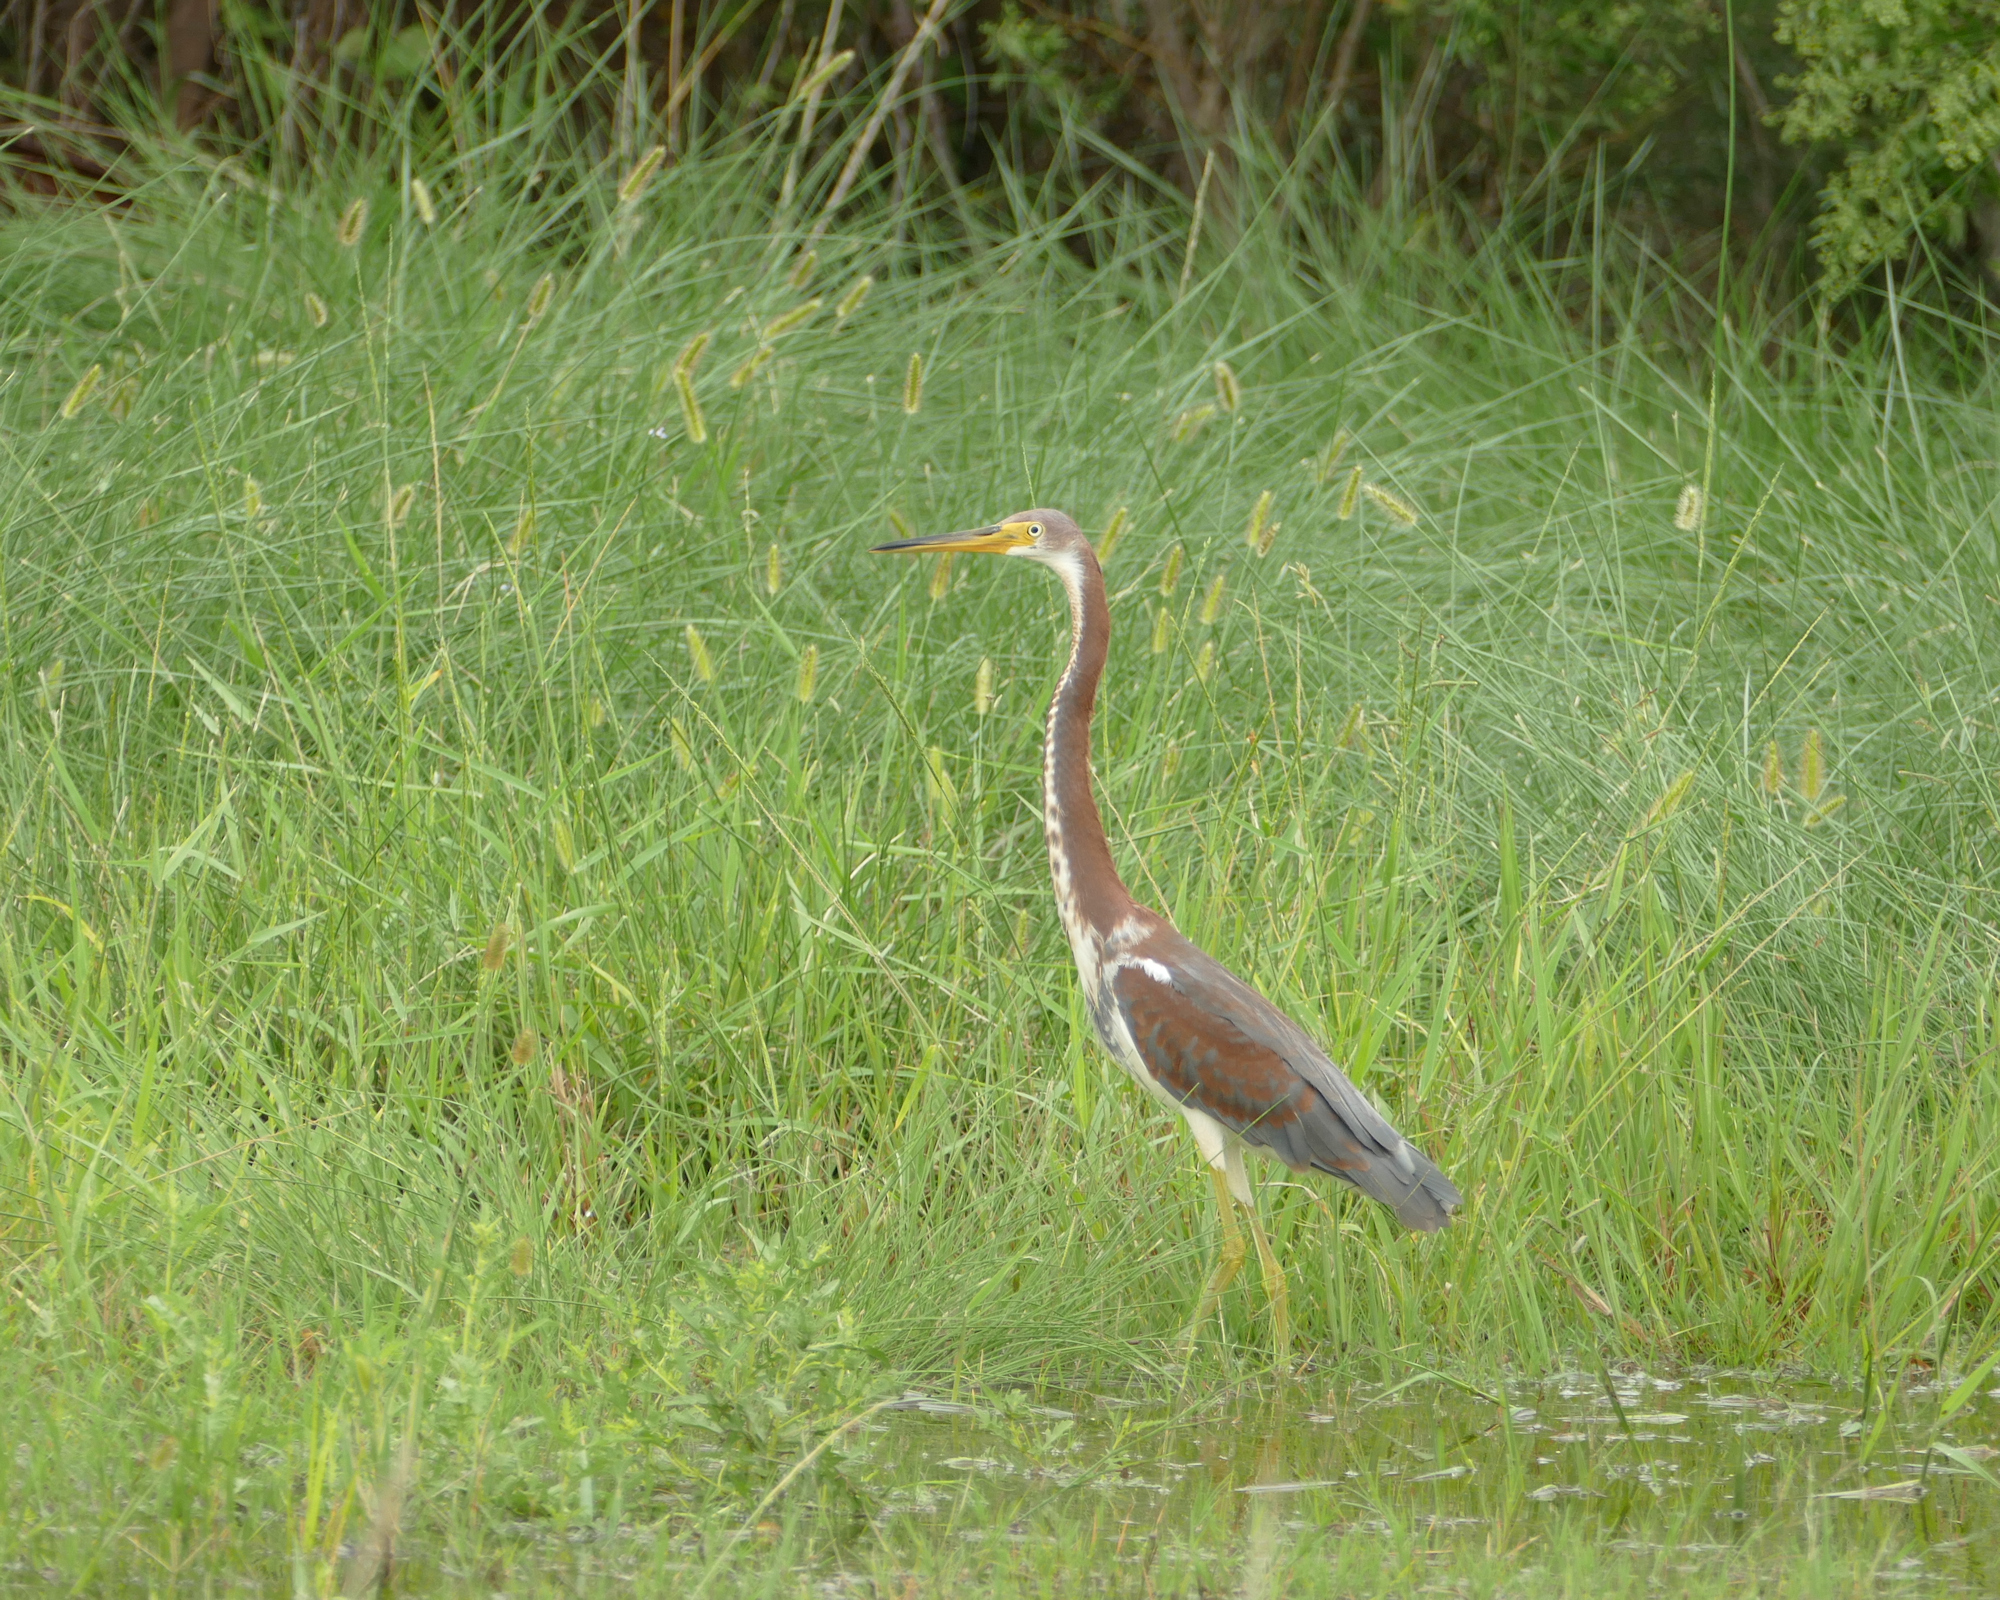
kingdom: Animalia
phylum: Chordata
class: Aves
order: Pelecaniformes
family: Ardeidae
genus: Egretta
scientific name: Egretta tricolor
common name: Tricolored heron
